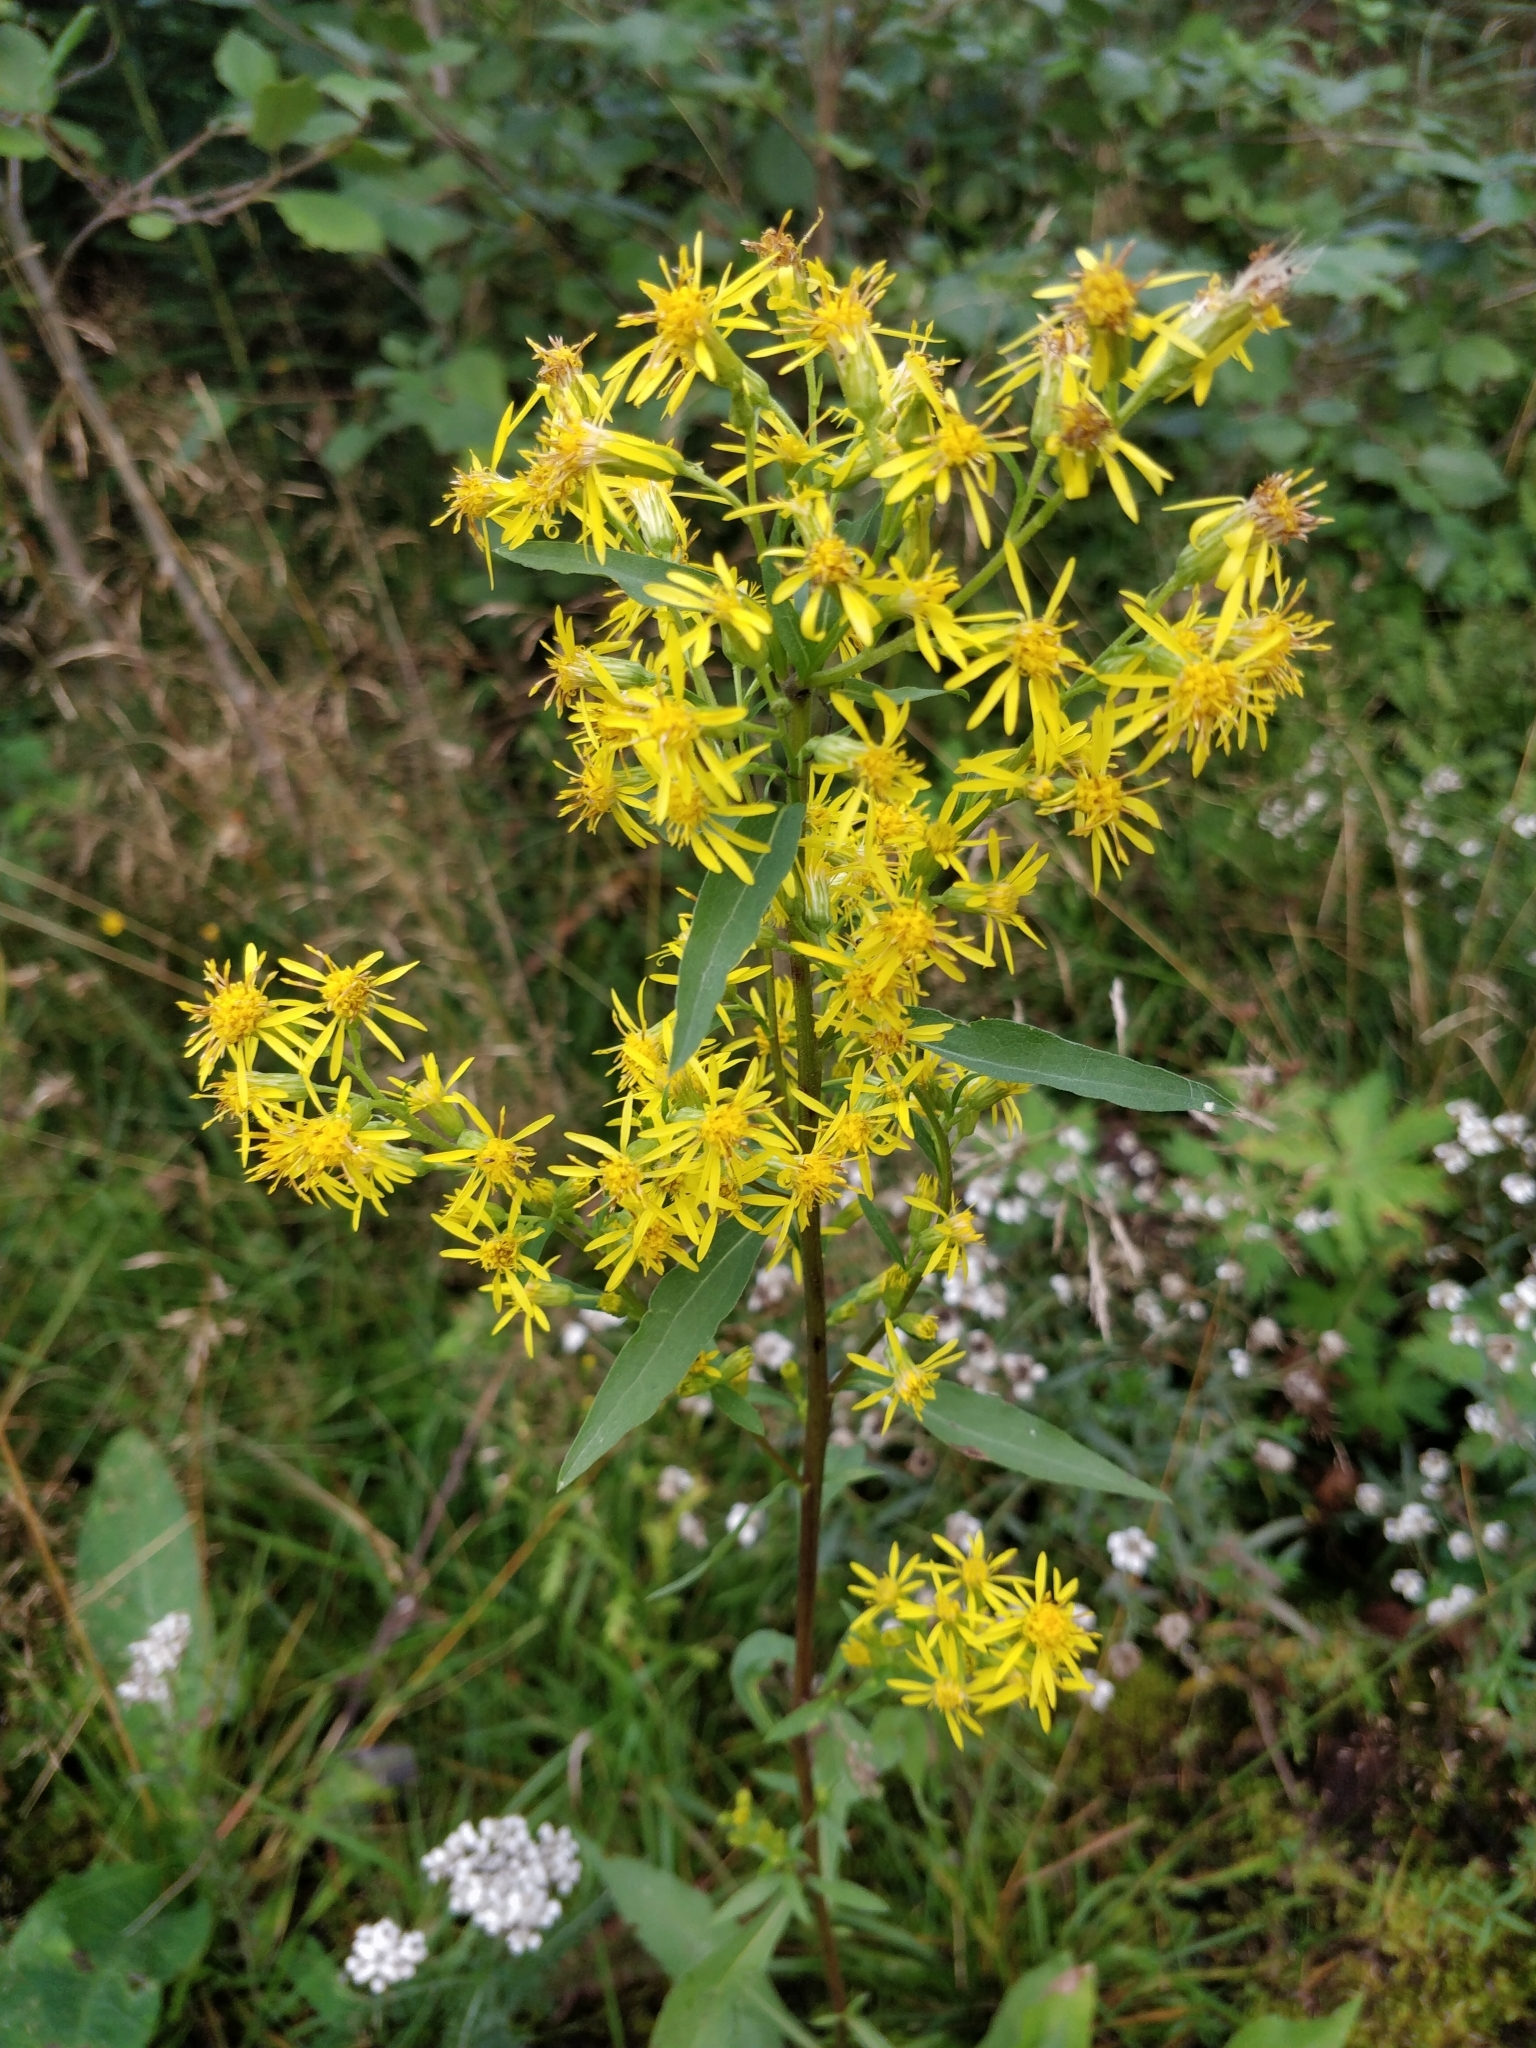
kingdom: Plantae
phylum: Tracheophyta
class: Magnoliopsida
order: Asterales
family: Asteraceae
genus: Solidago
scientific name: Solidago virgaurea
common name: Goldenrod
